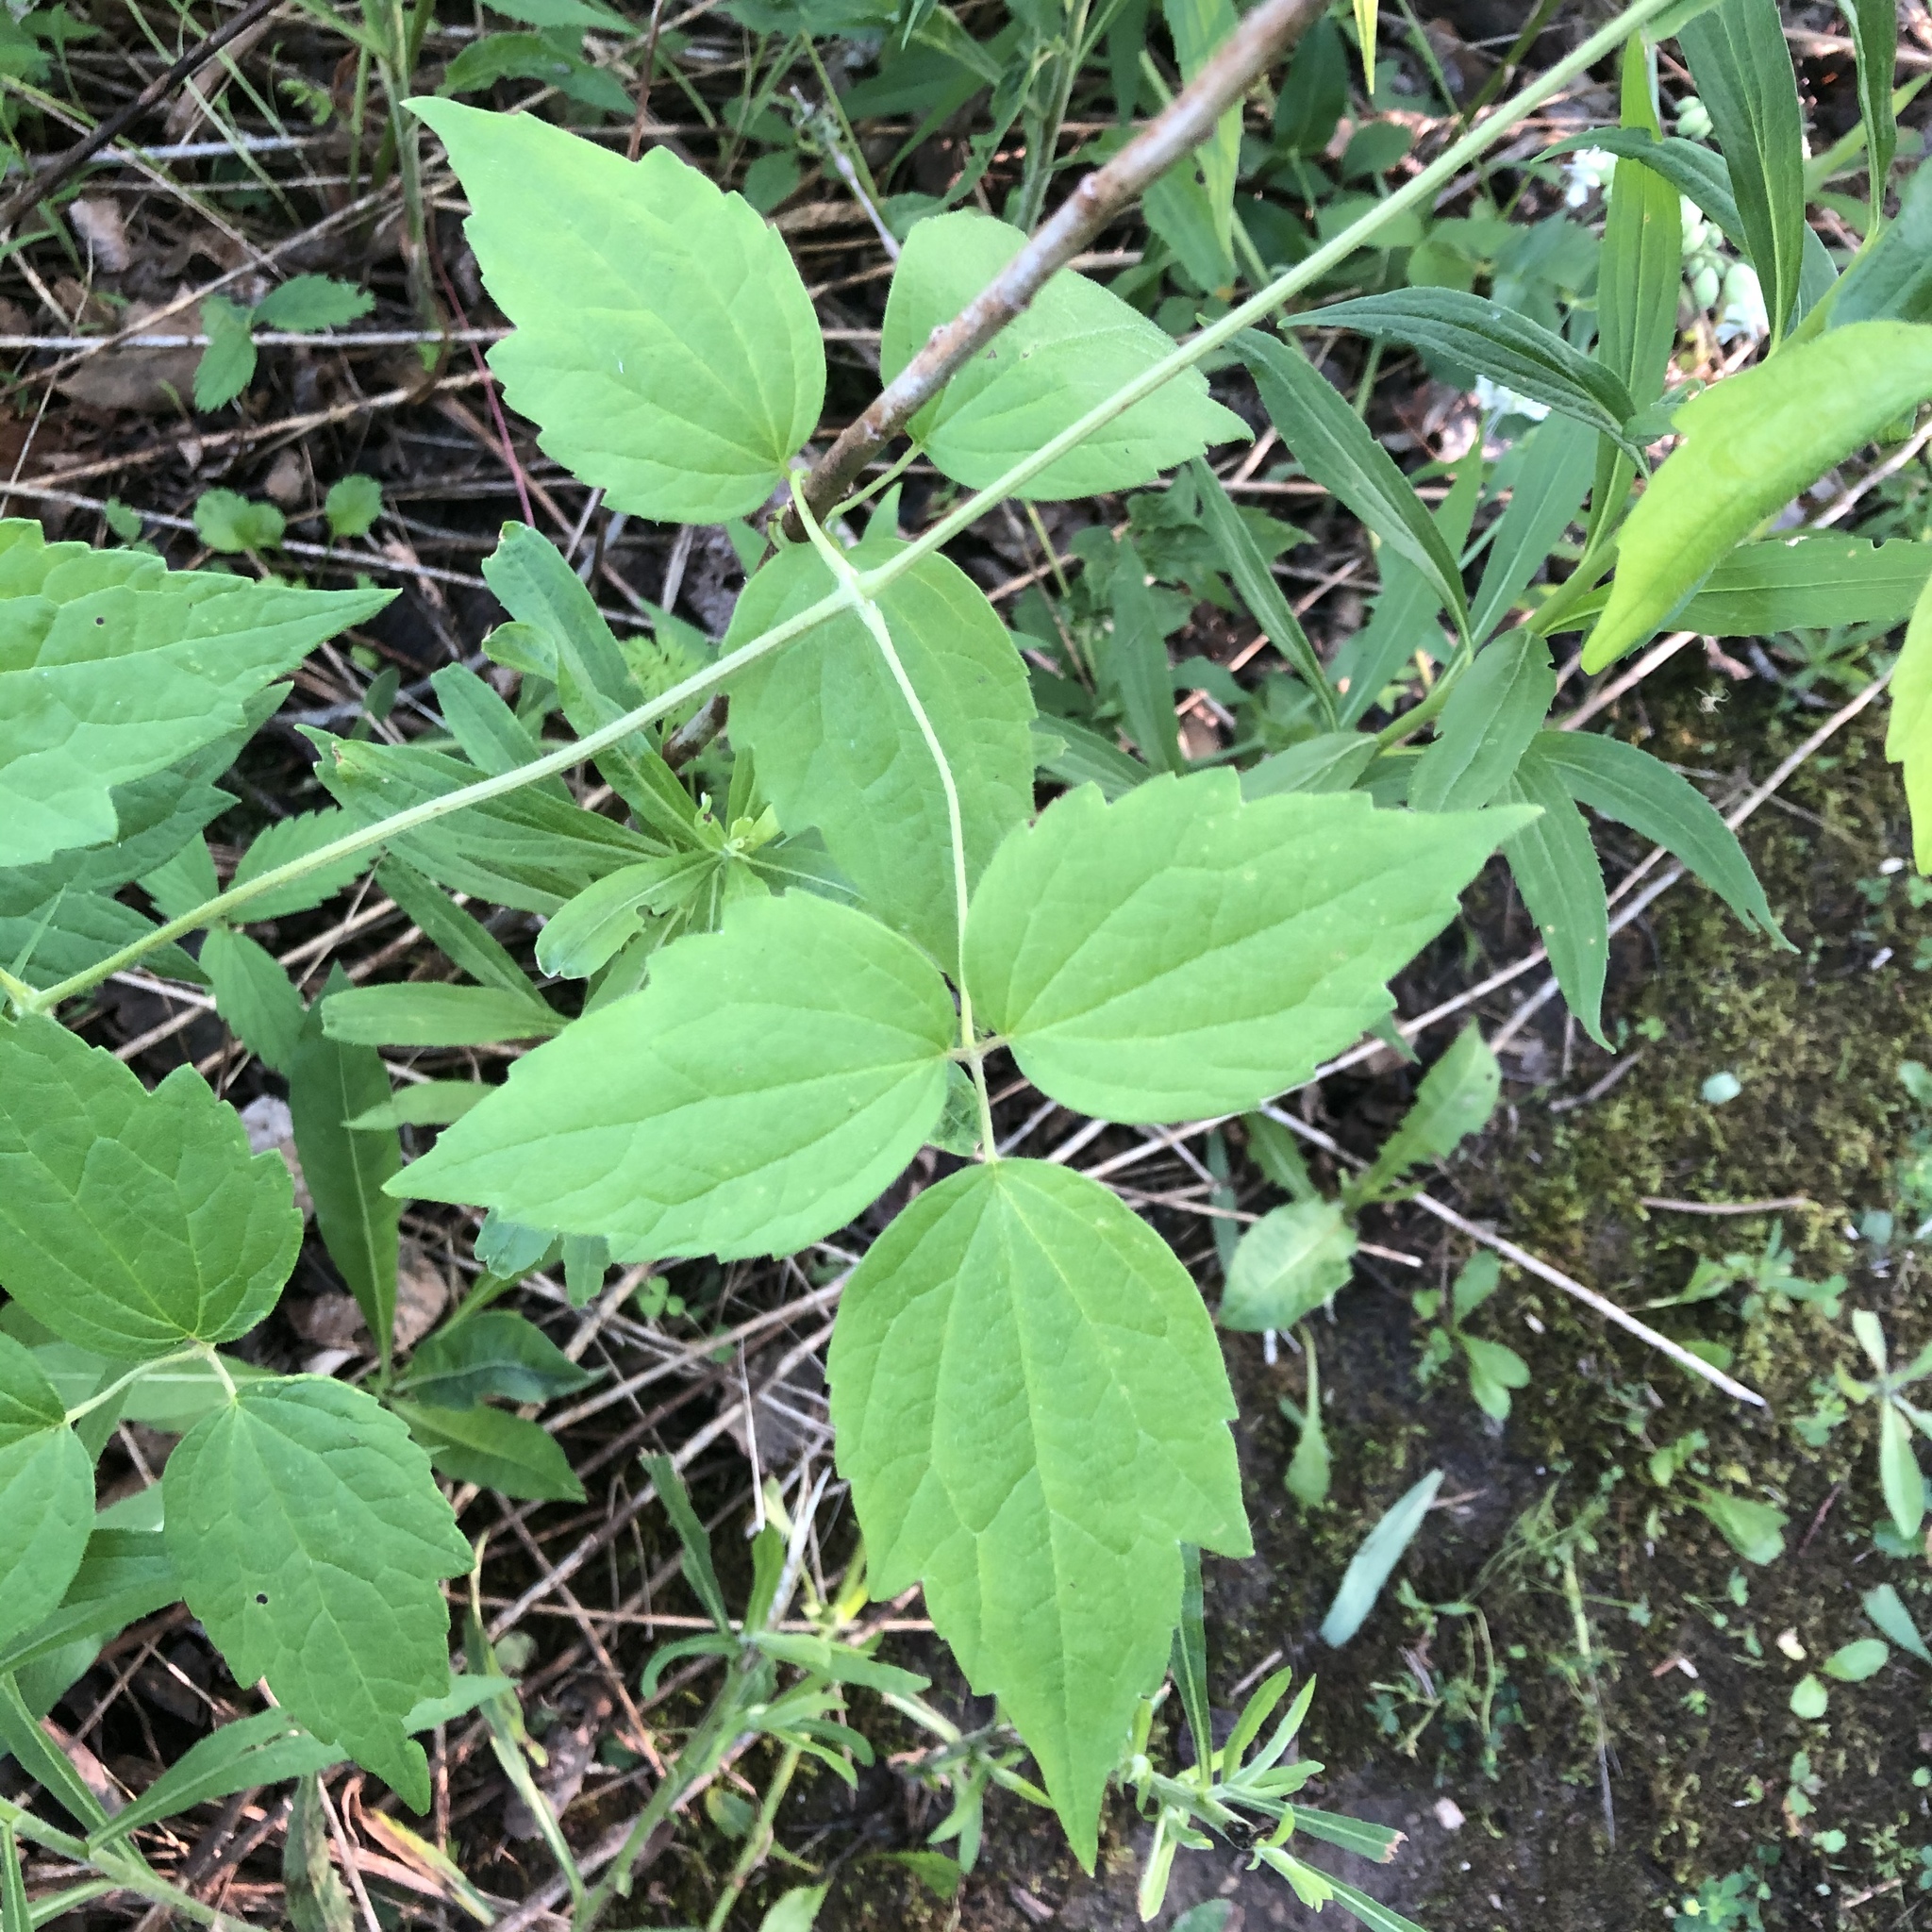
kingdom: Plantae
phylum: Tracheophyta
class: Magnoliopsida
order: Ranunculales
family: Ranunculaceae
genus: Clematis
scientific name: Clematis virginiana
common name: Virgin's-bower
